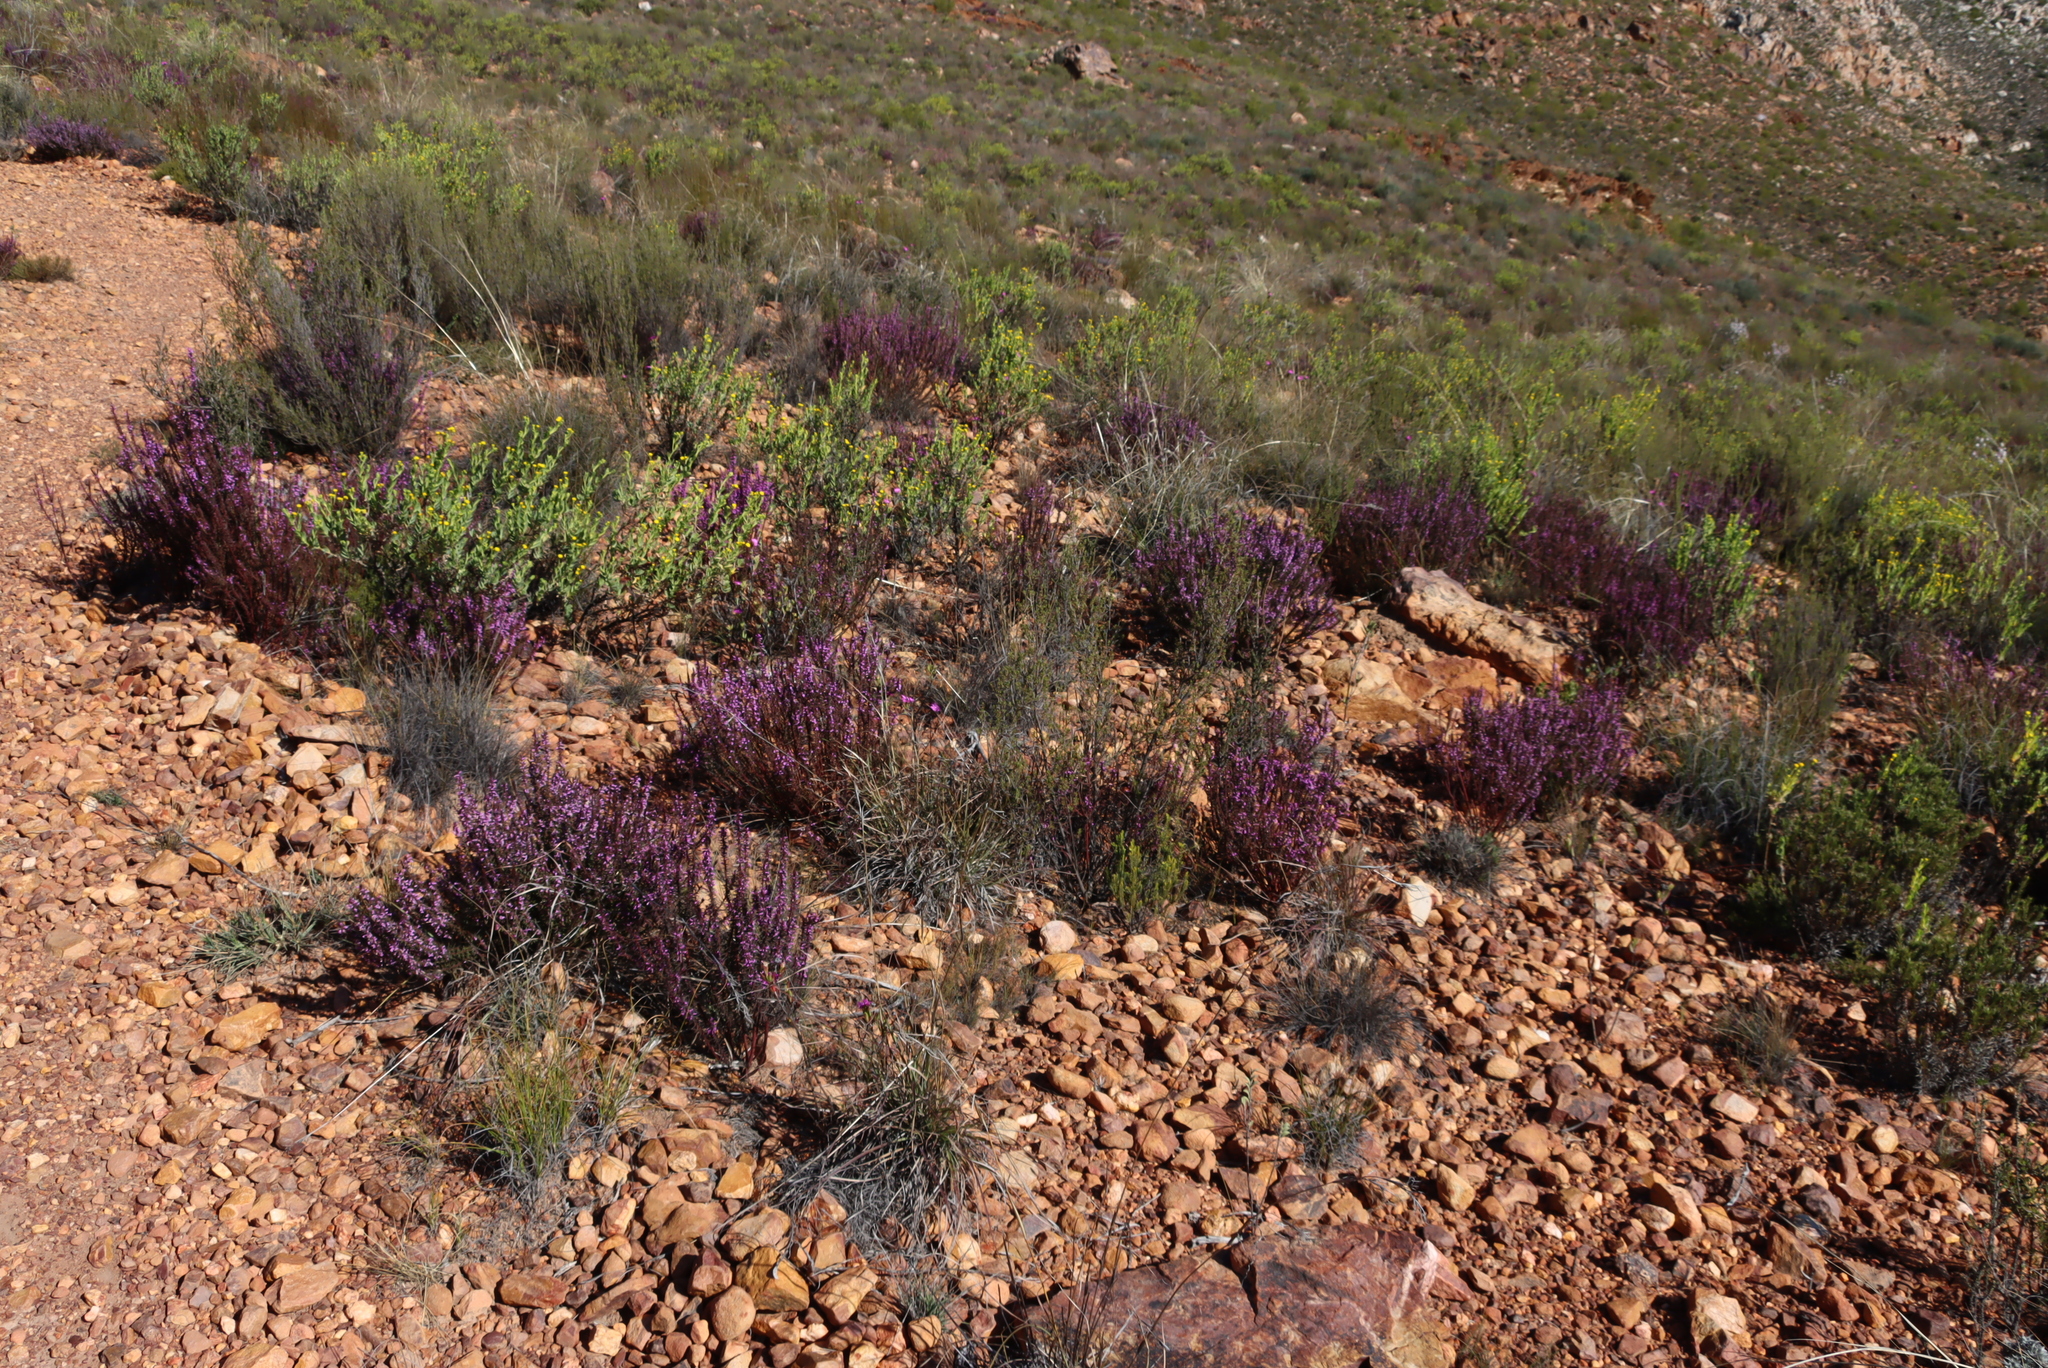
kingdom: Plantae
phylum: Tracheophyta
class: Magnoliopsida
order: Fabales
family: Polygalaceae
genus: Muraltia
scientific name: Muraltia juniperifolia
